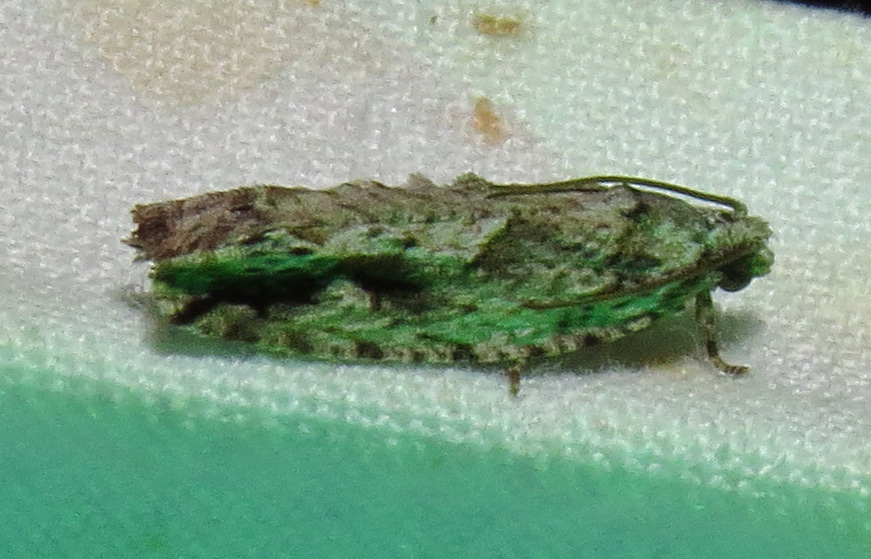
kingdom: Animalia
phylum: Arthropoda
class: Insecta
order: Lepidoptera
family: Tortricidae
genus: Gretchena
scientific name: Gretchena bolliana
